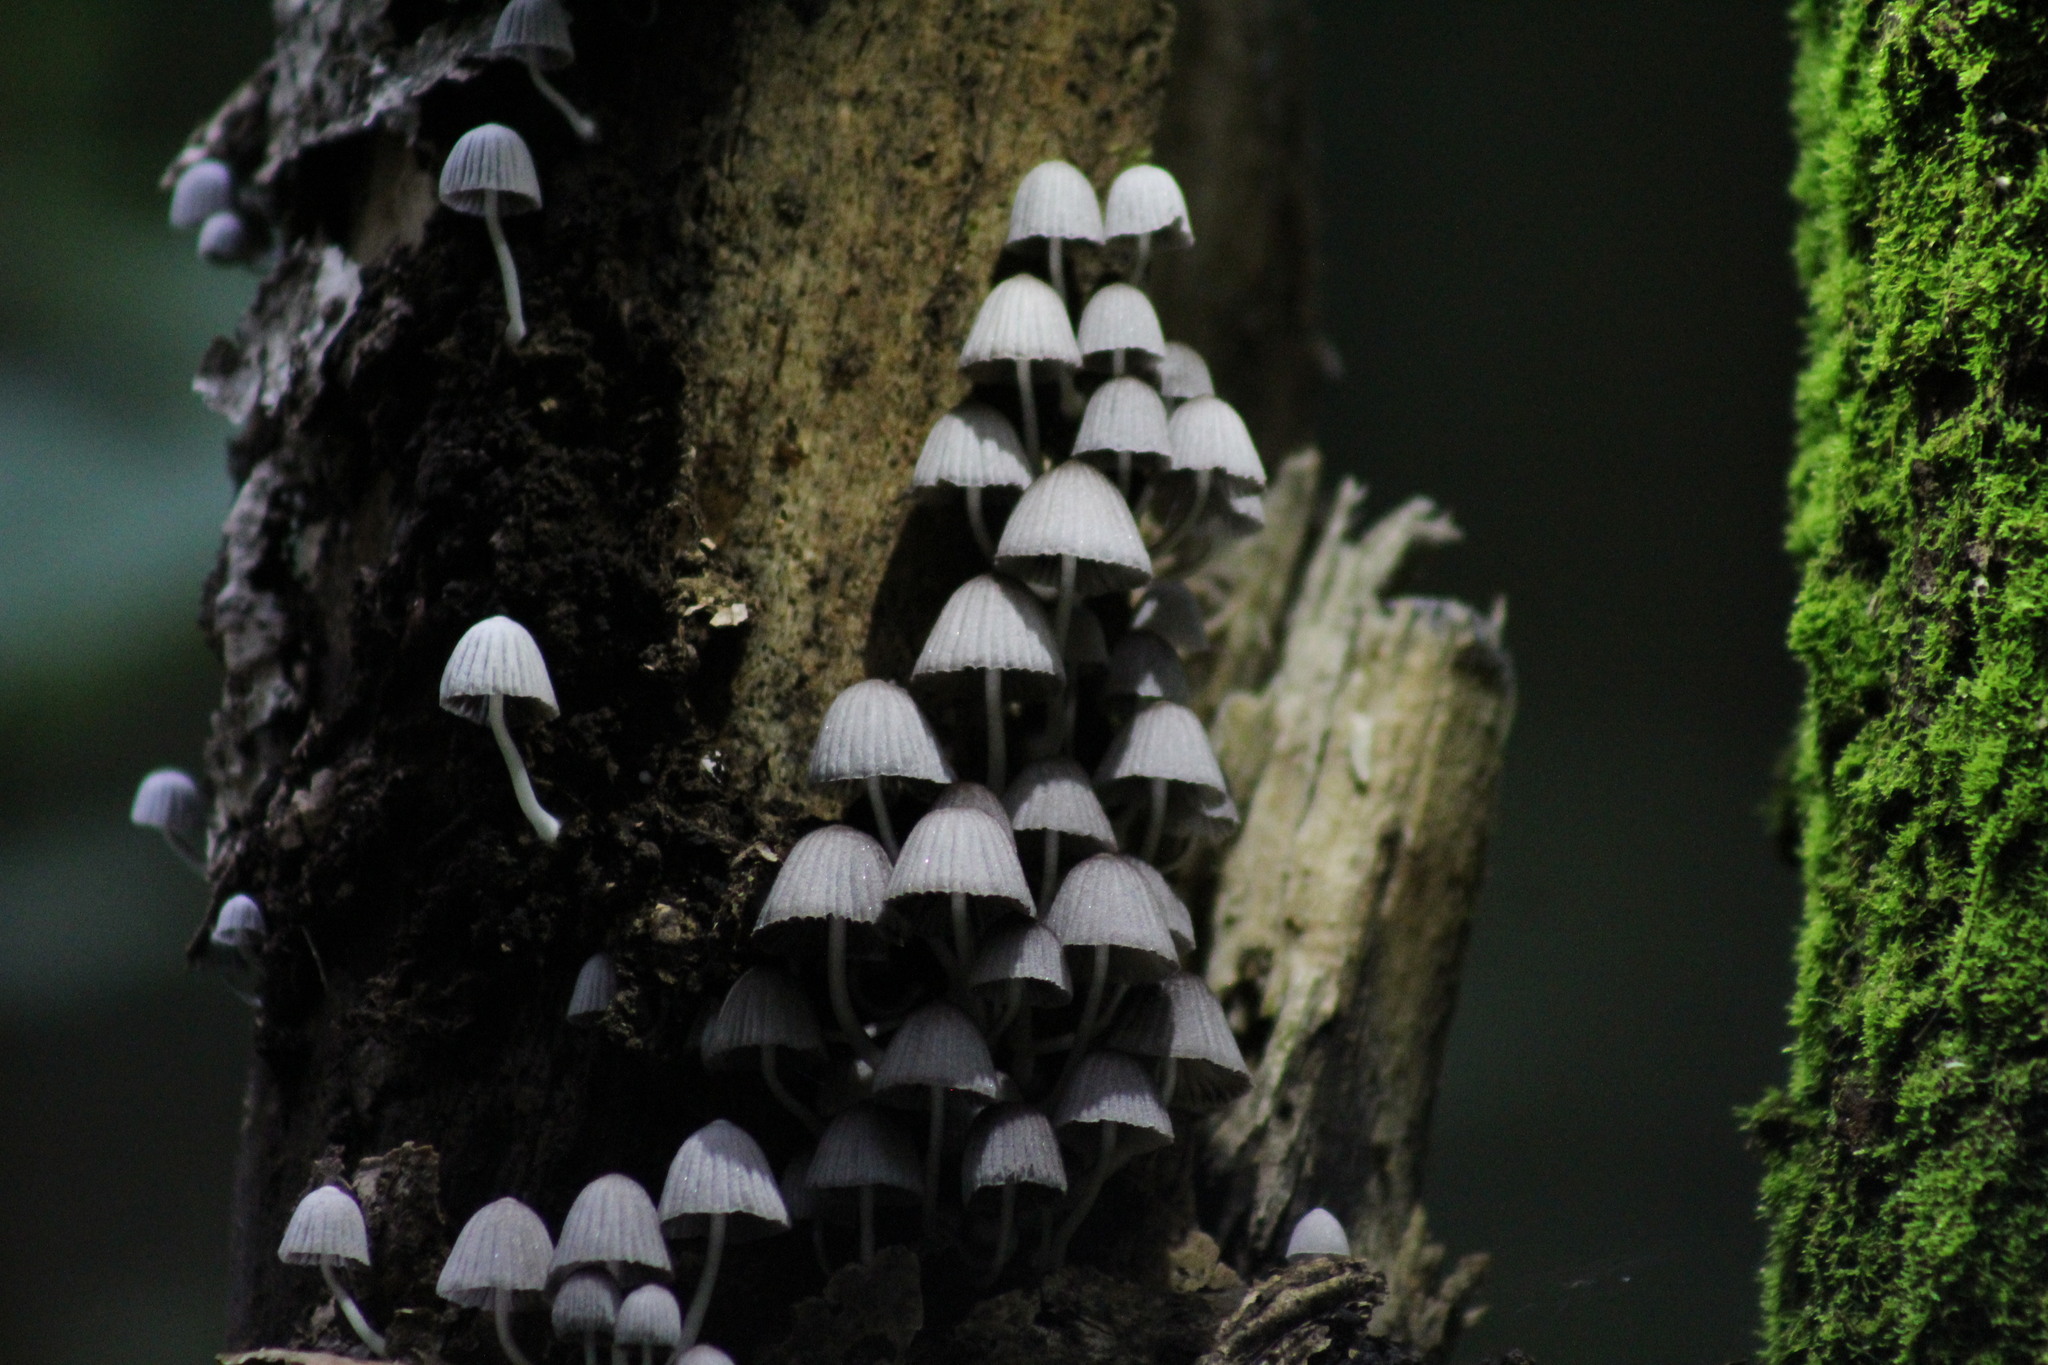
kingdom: Fungi
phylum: Basidiomycota
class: Agaricomycetes
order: Agaricales
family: Psathyrellaceae
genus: Coprinellus
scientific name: Coprinellus disseminatus
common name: Fairies' bonnets
